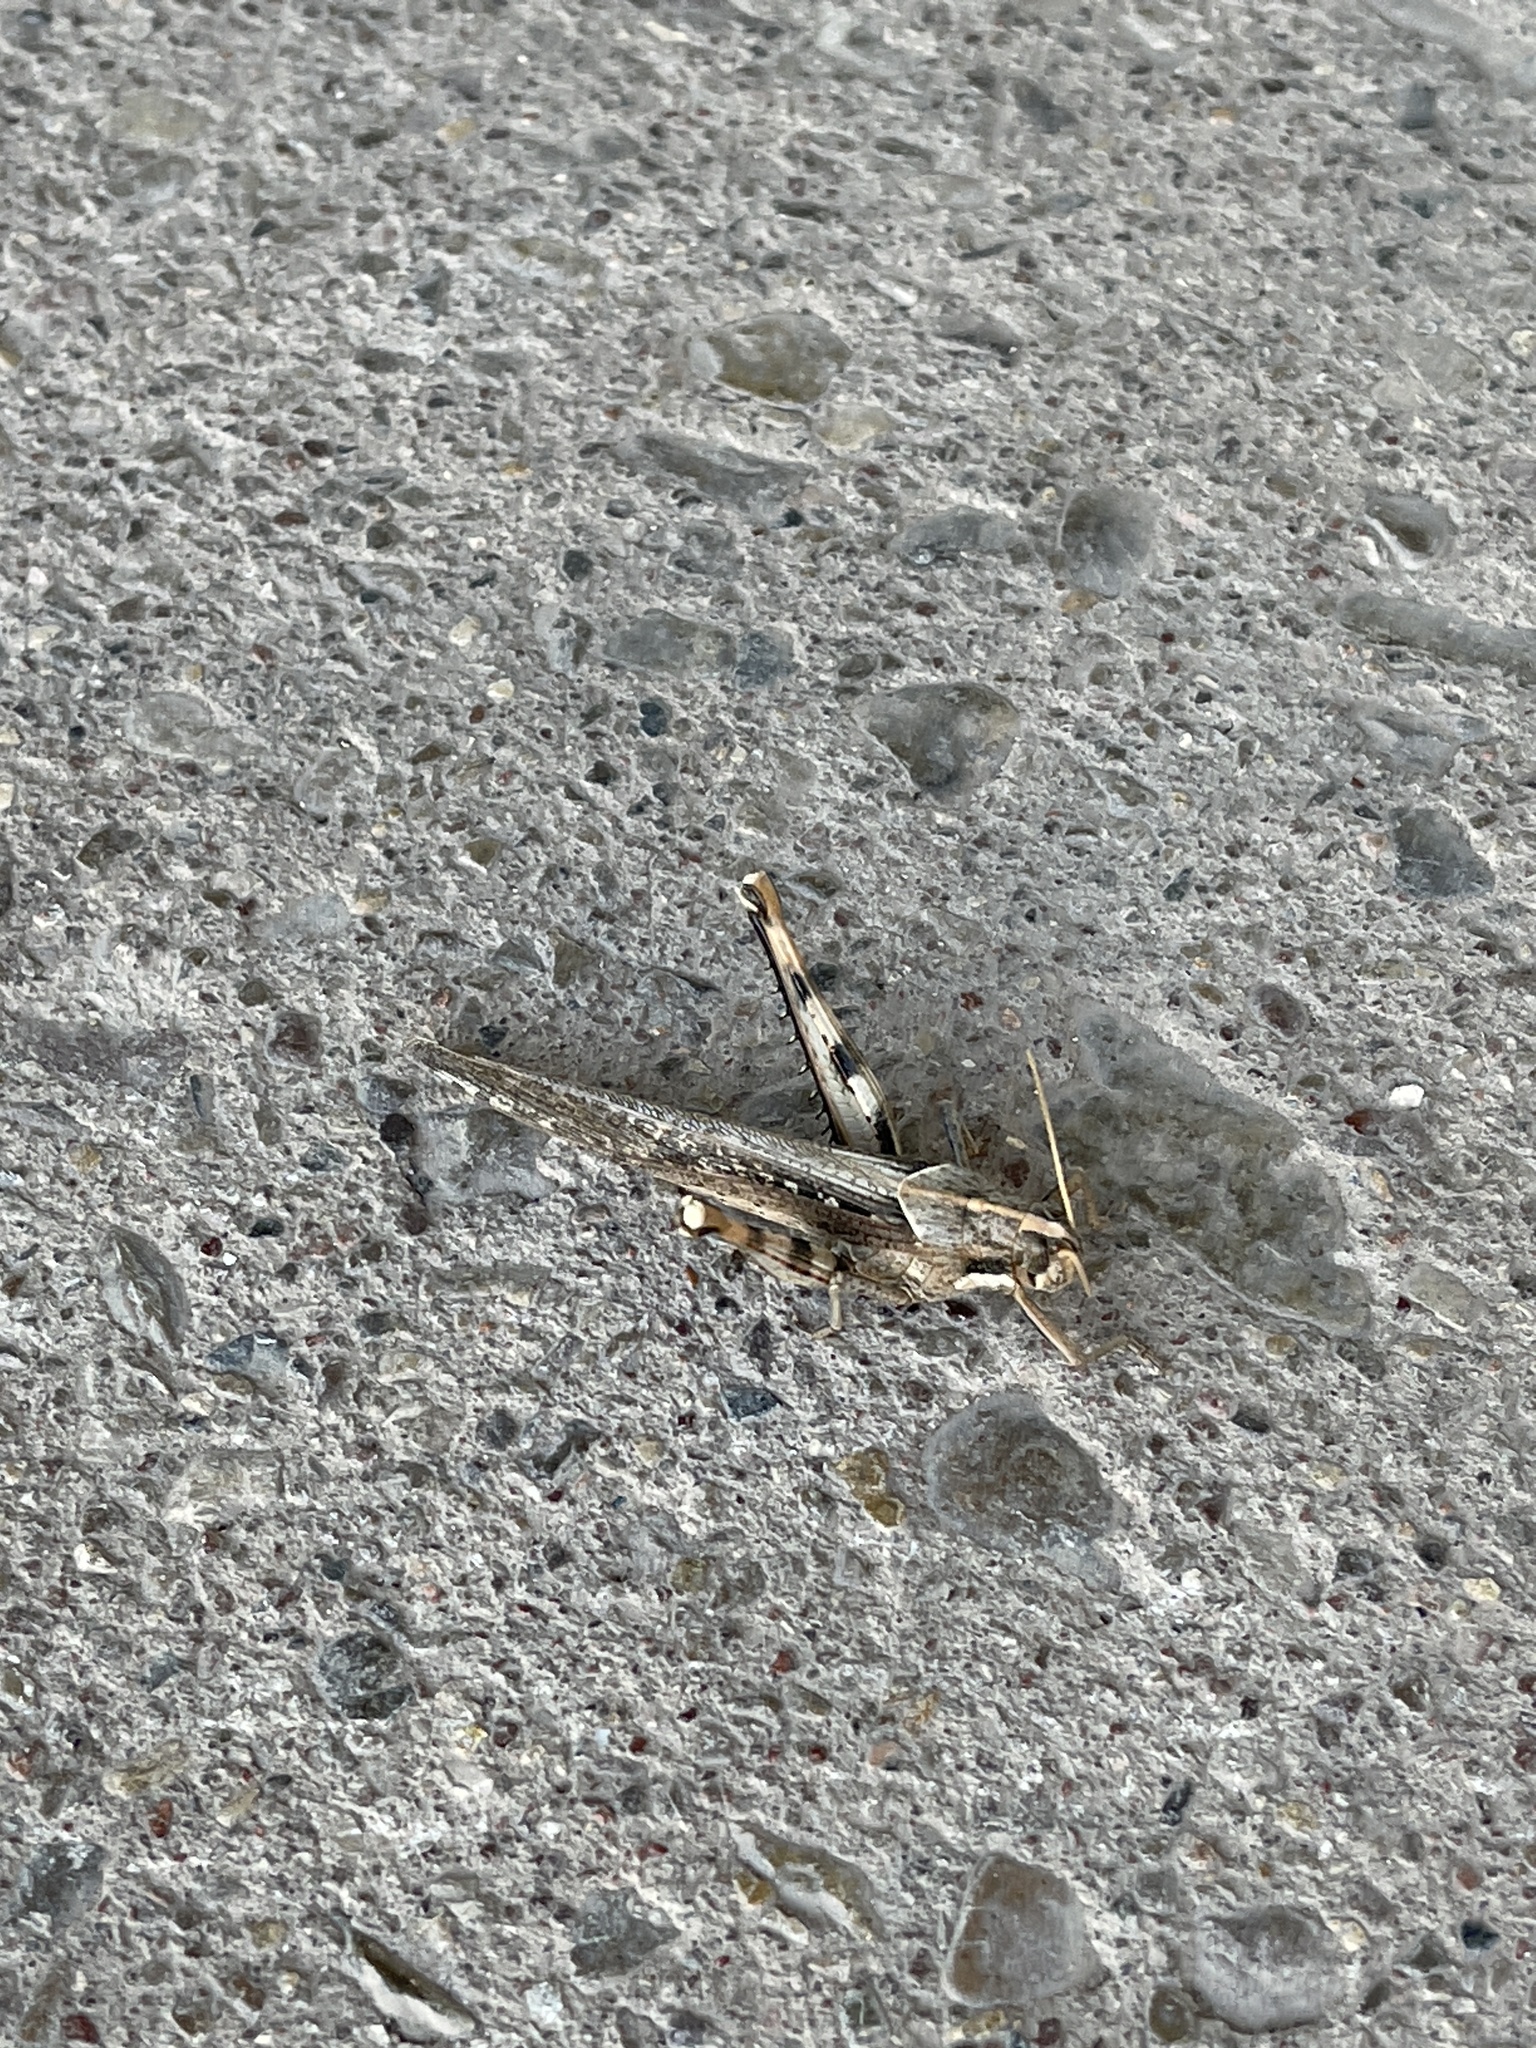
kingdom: Animalia
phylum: Arthropoda
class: Insecta
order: Orthoptera
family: Acrididae
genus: Schistocerca
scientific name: Schistocerca nitens
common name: Vagrant grasshopper
